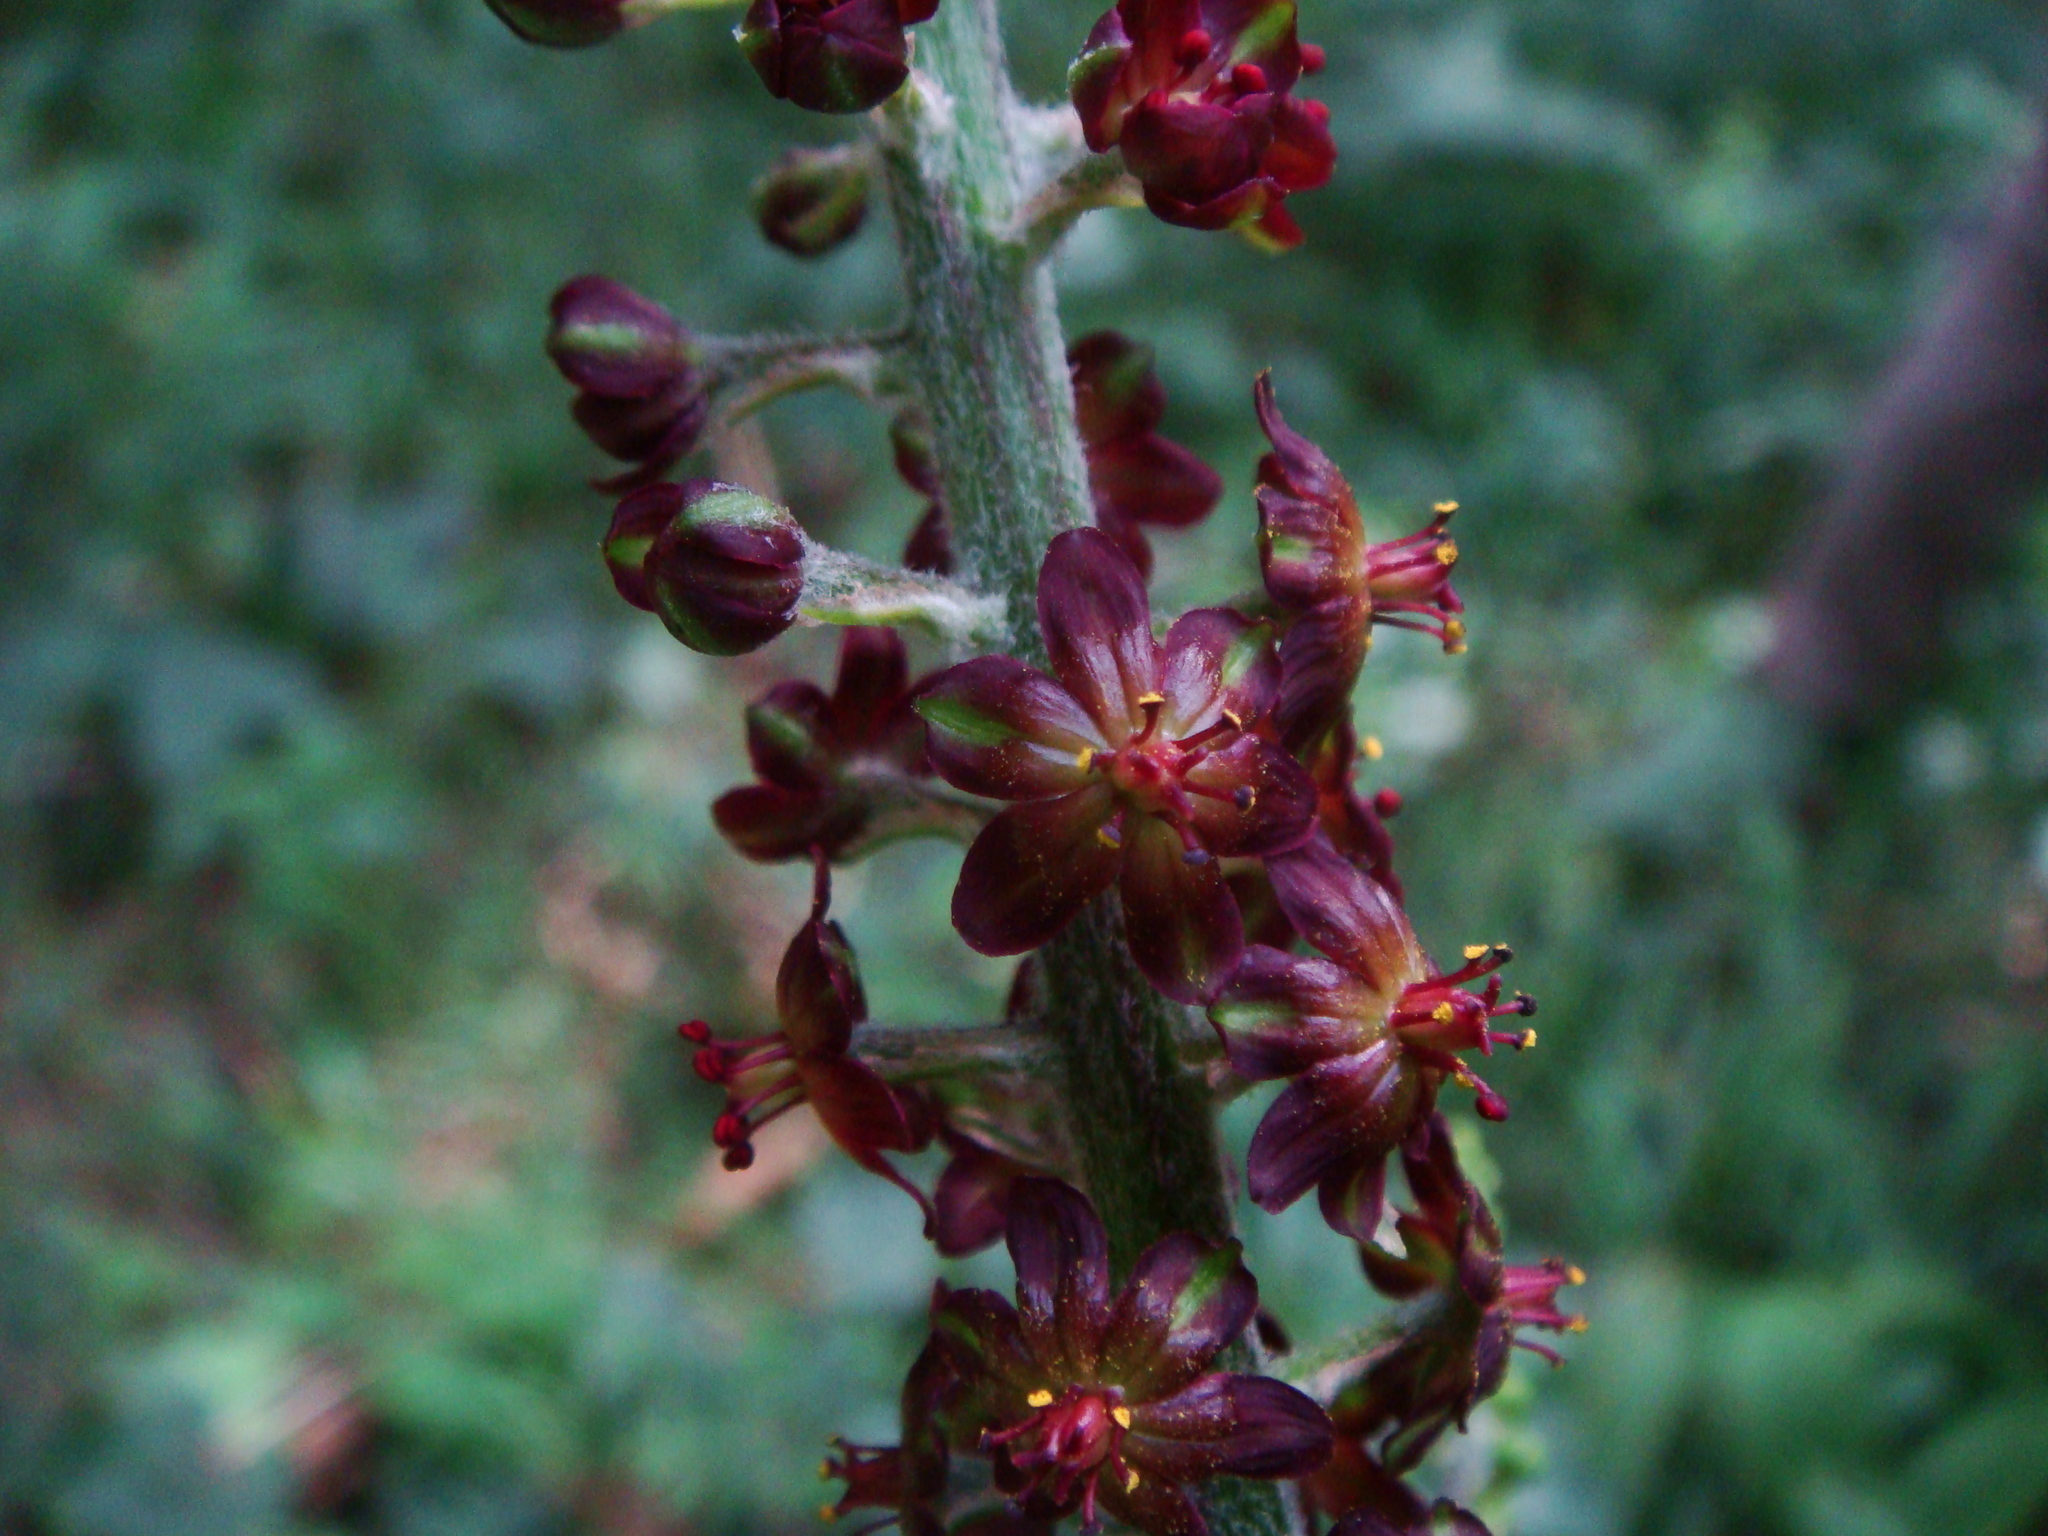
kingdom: Plantae
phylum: Tracheophyta
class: Liliopsida
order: Liliales
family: Melanthiaceae
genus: Veratrum
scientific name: Veratrum nigrum
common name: Black veratrum
